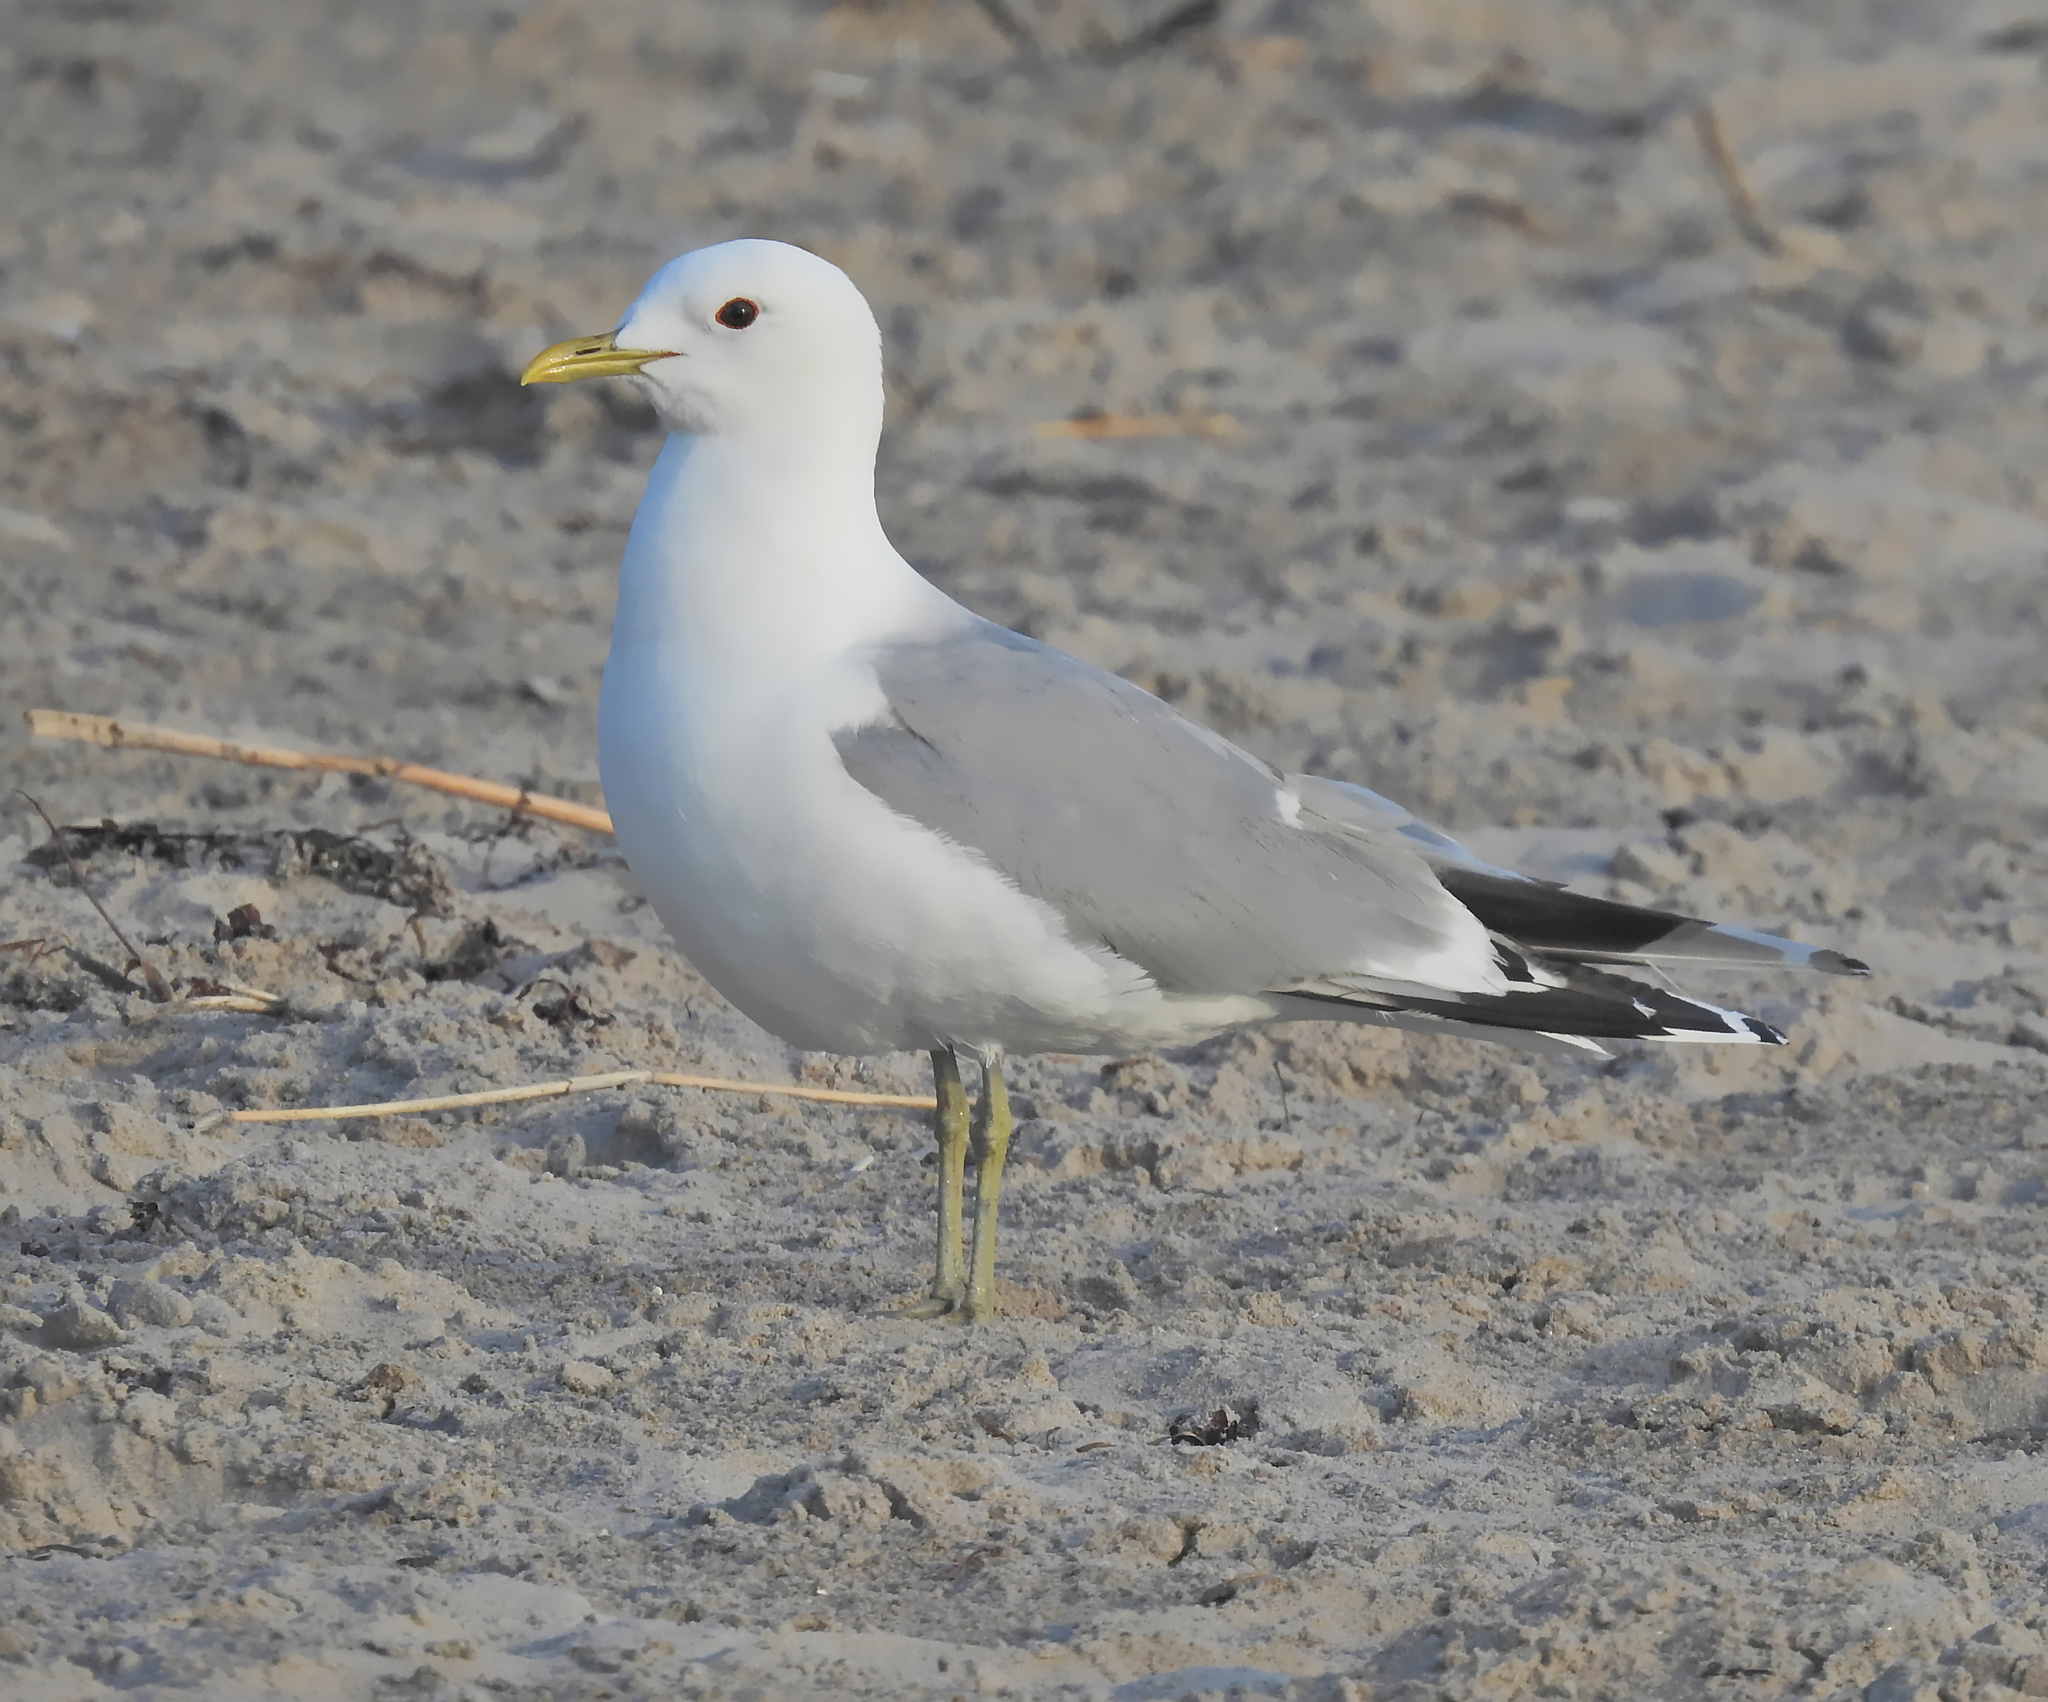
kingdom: Animalia
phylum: Chordata
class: Aves
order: Charadriiformes
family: Laridae
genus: Larus
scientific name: Larus canus
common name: Mew gull
